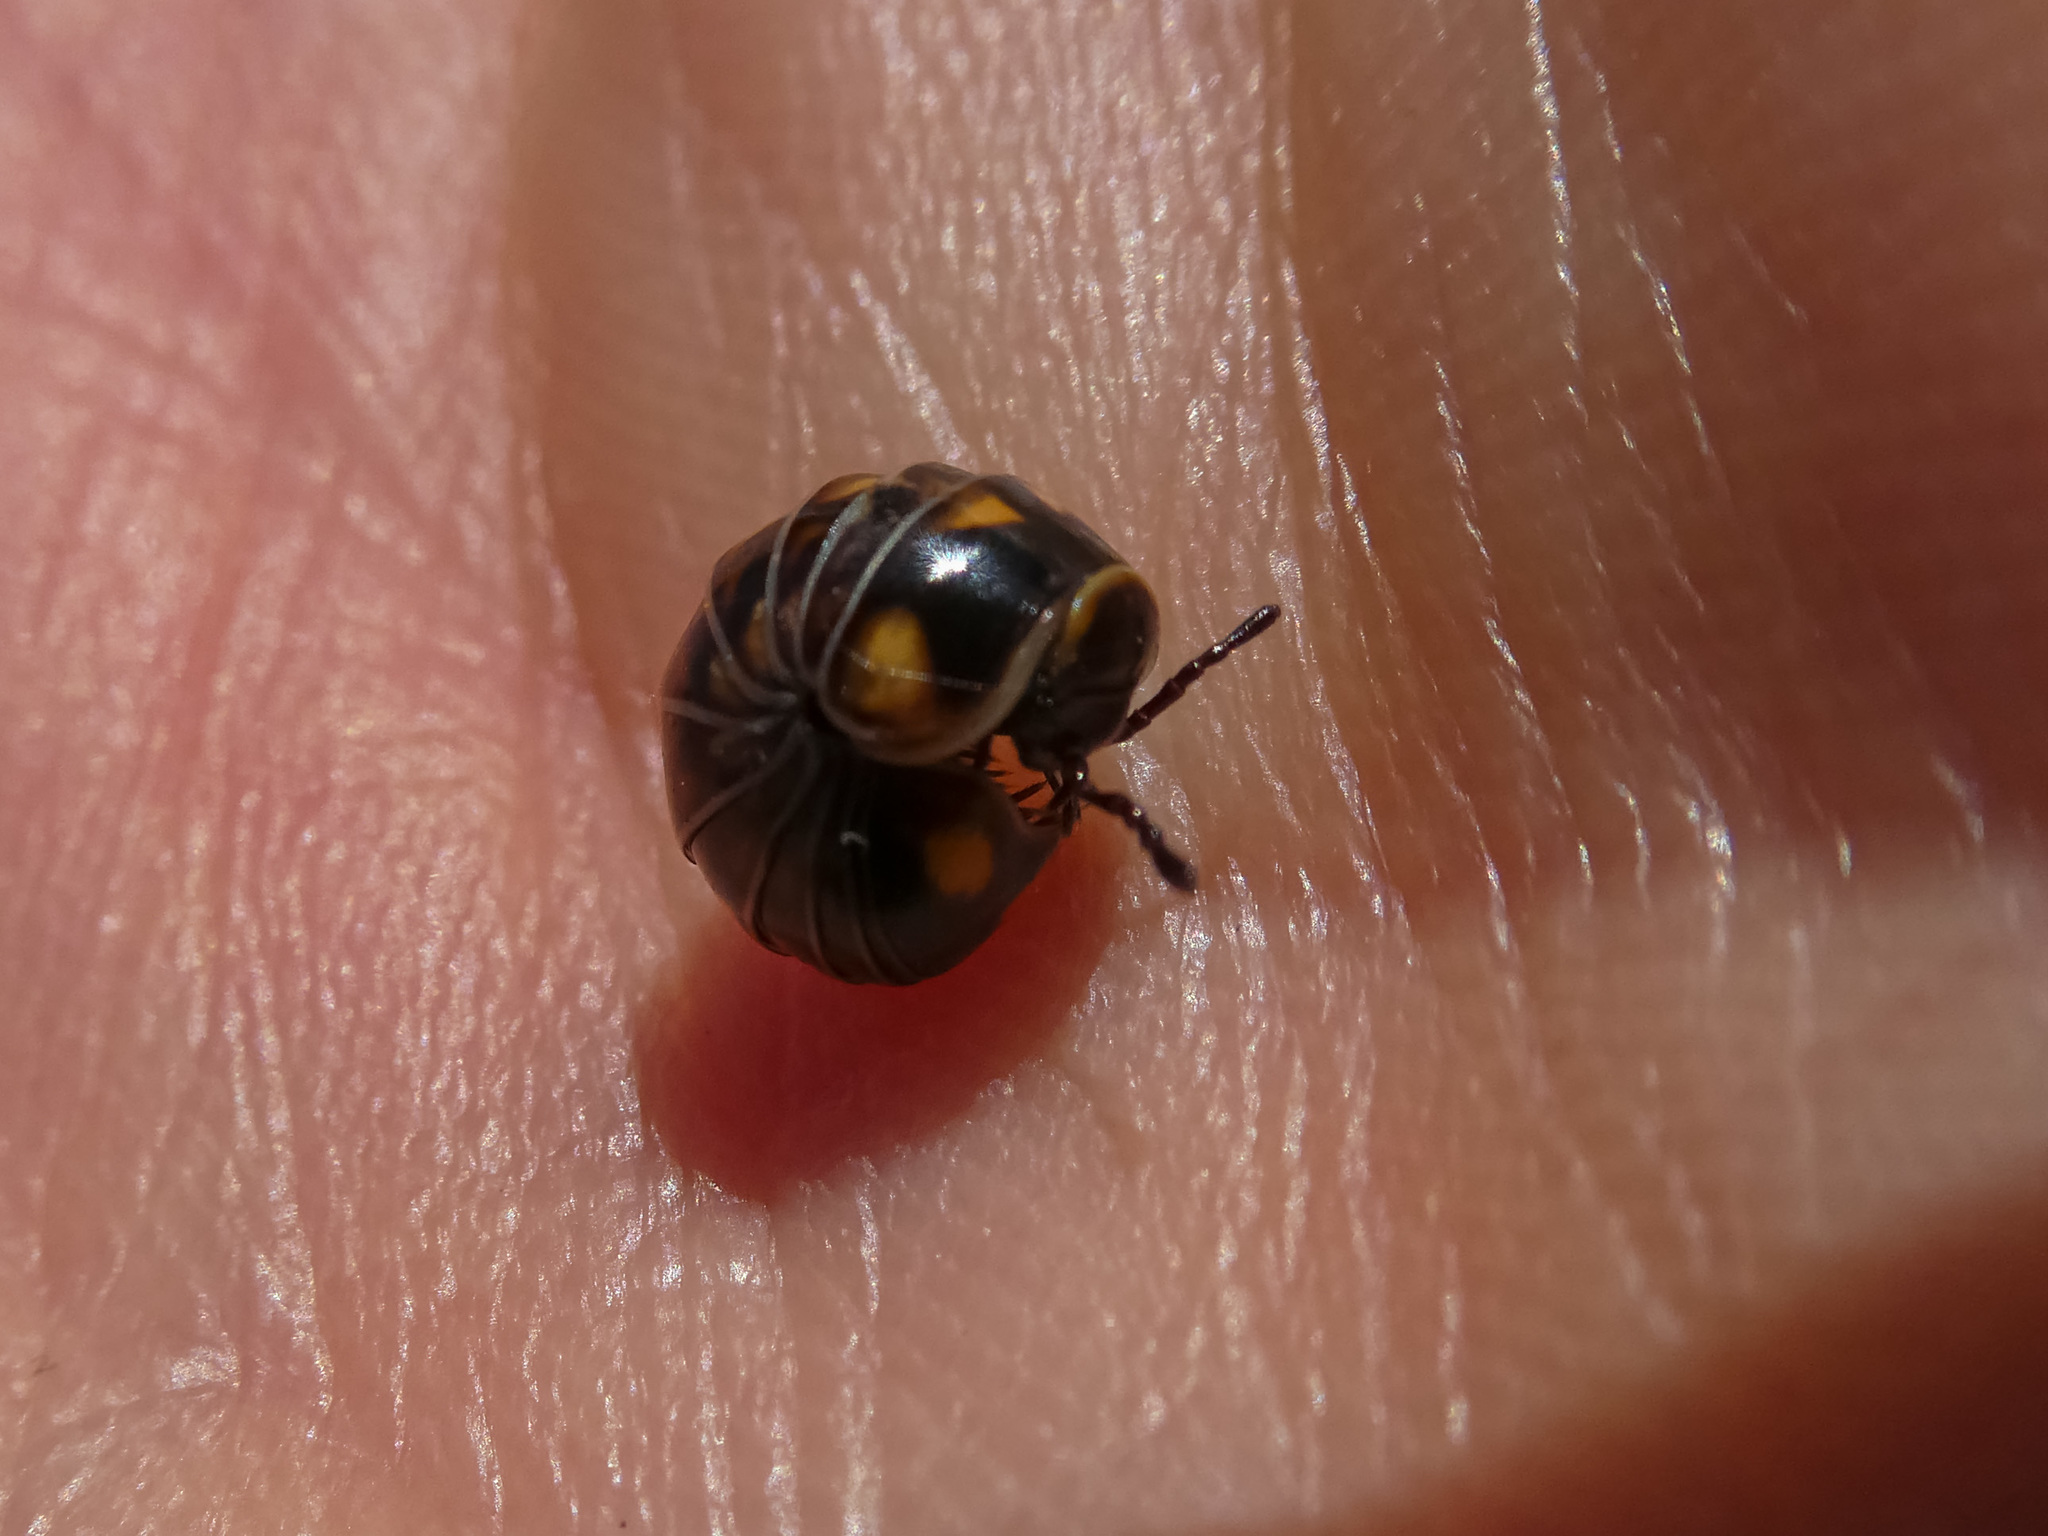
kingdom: Animalia
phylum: Arthropoda
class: Diplopoda
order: Glomerida
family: Glomeridae
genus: Glomeris
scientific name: Glomeris hexasticha
